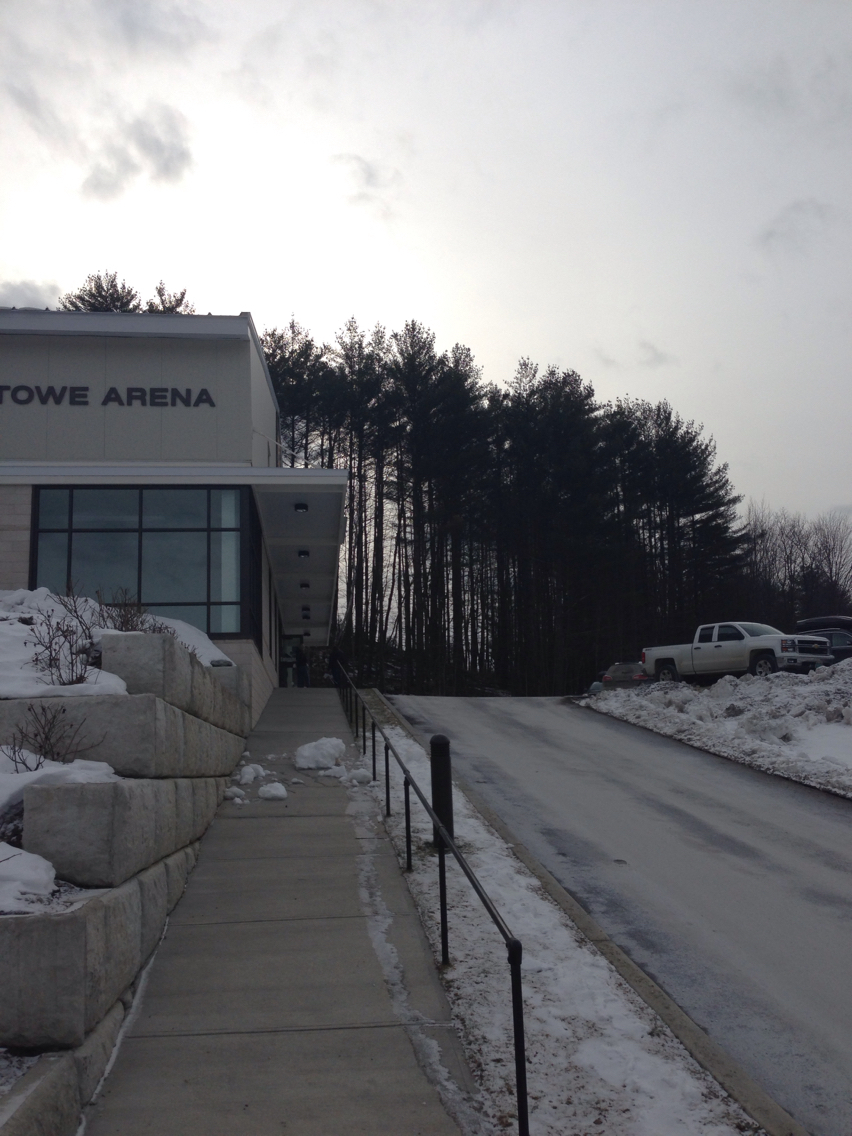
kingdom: Plantae
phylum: Tracheophyta
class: Pinopsida
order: Pinales
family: Pinaceae
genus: Pinus
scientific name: Pinus strobus
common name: Weymouth pine
